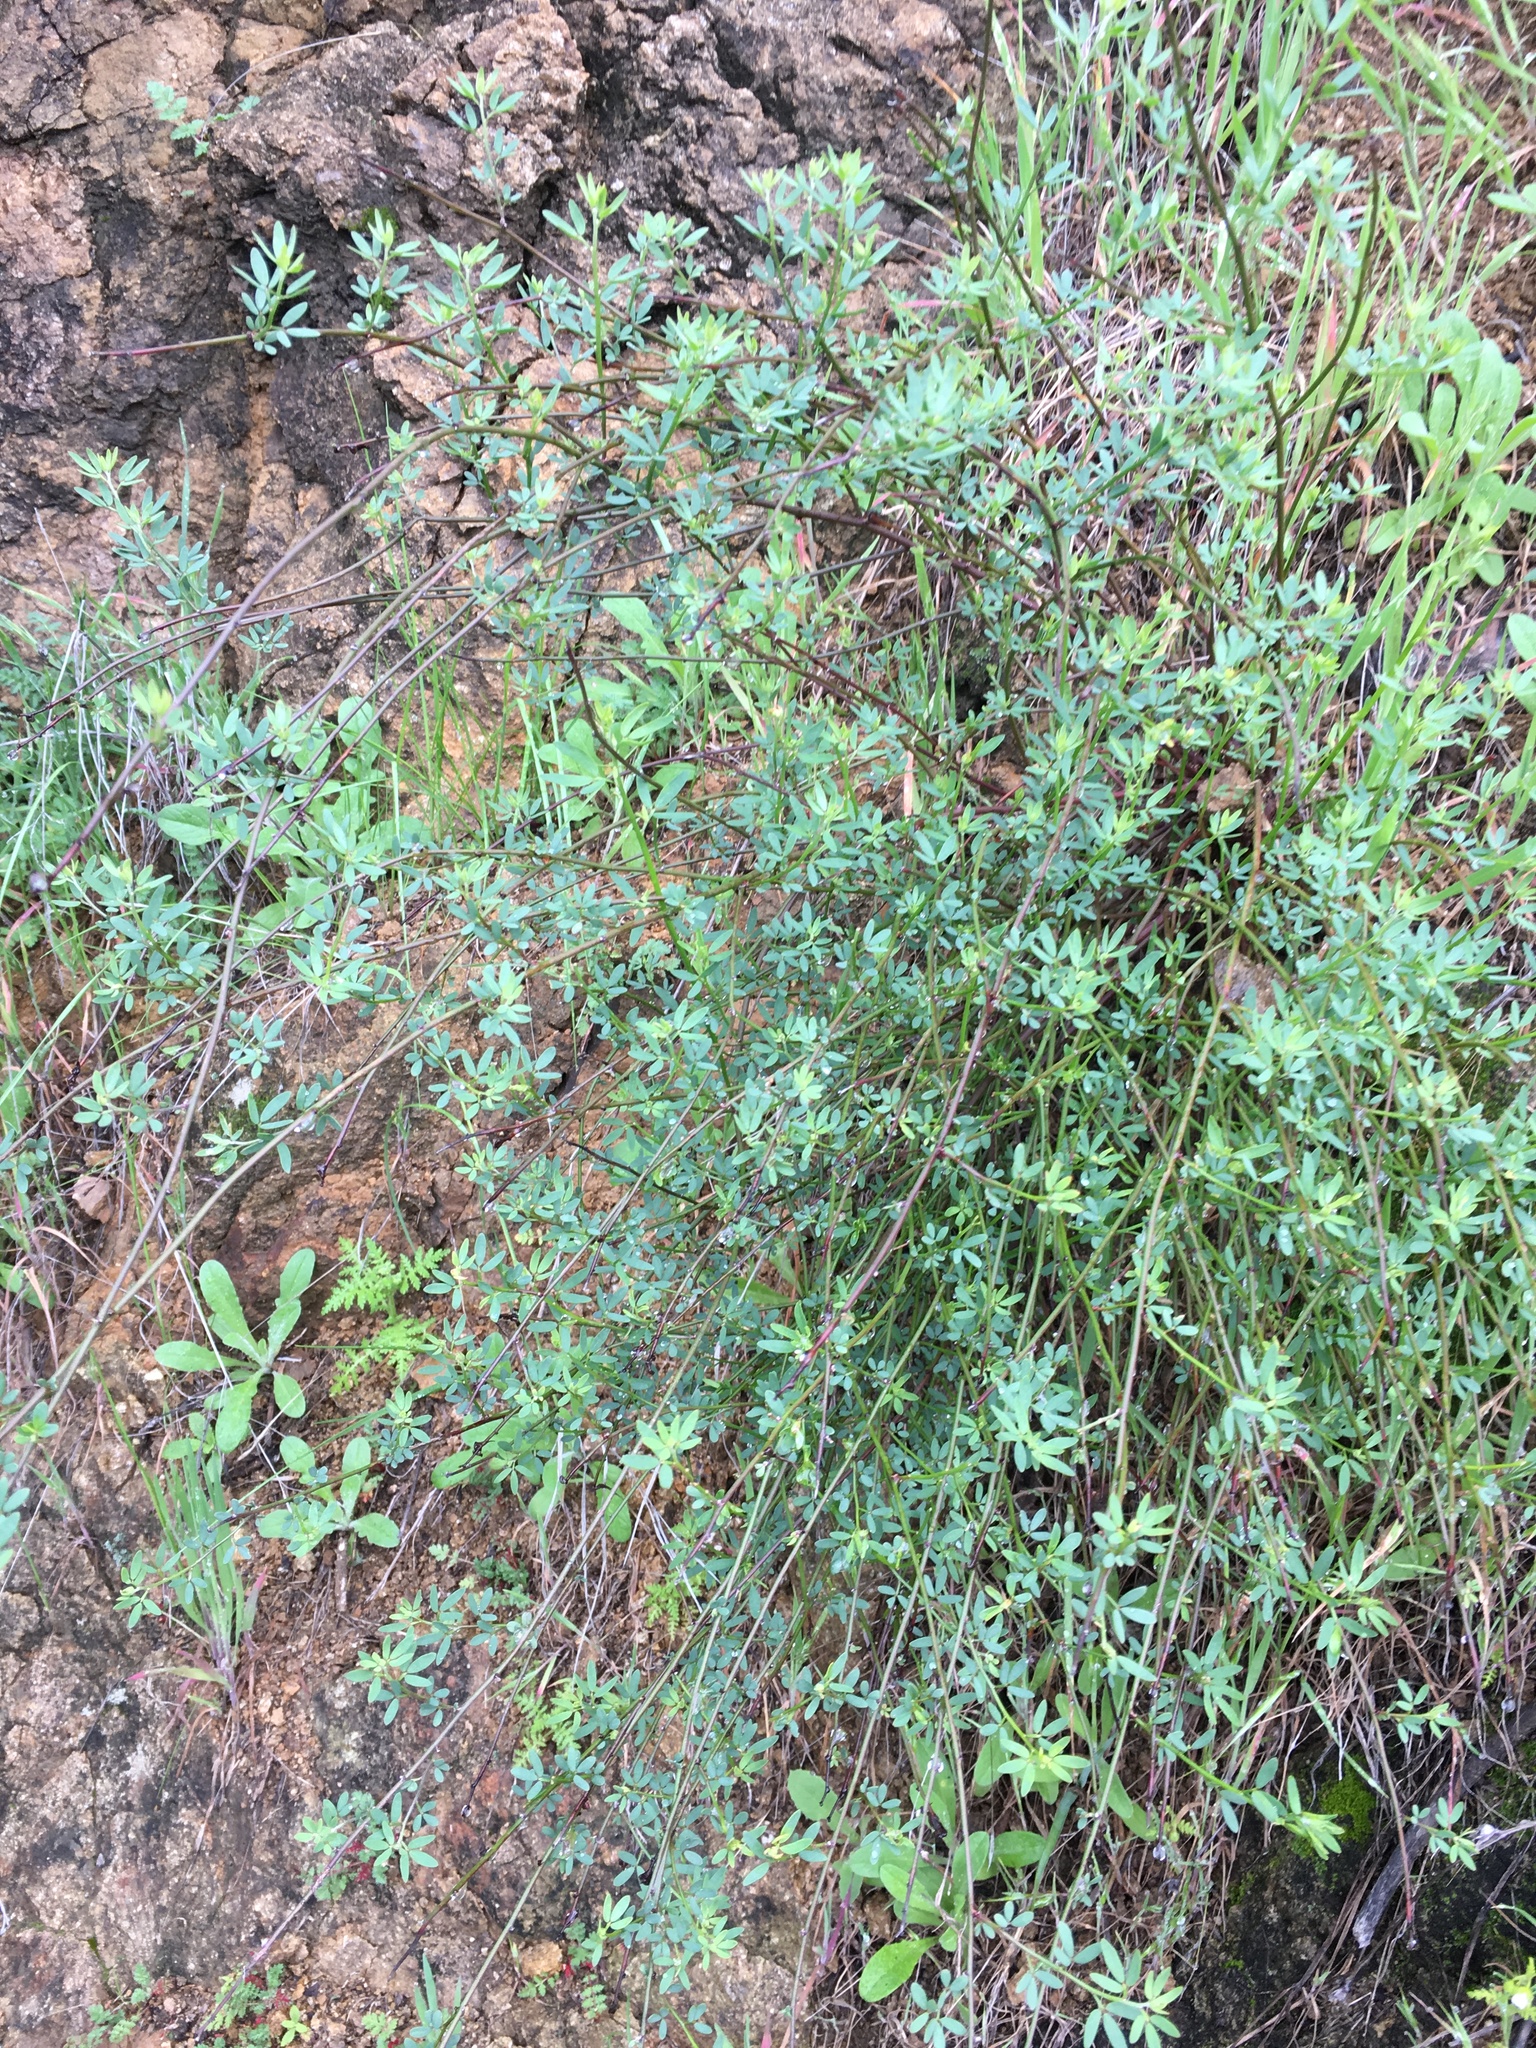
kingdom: Plantae
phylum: Tracheophyta
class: Magnoliopsida
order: Fabales
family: Fabaceae
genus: Acmispon
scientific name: Acmispon glaber
